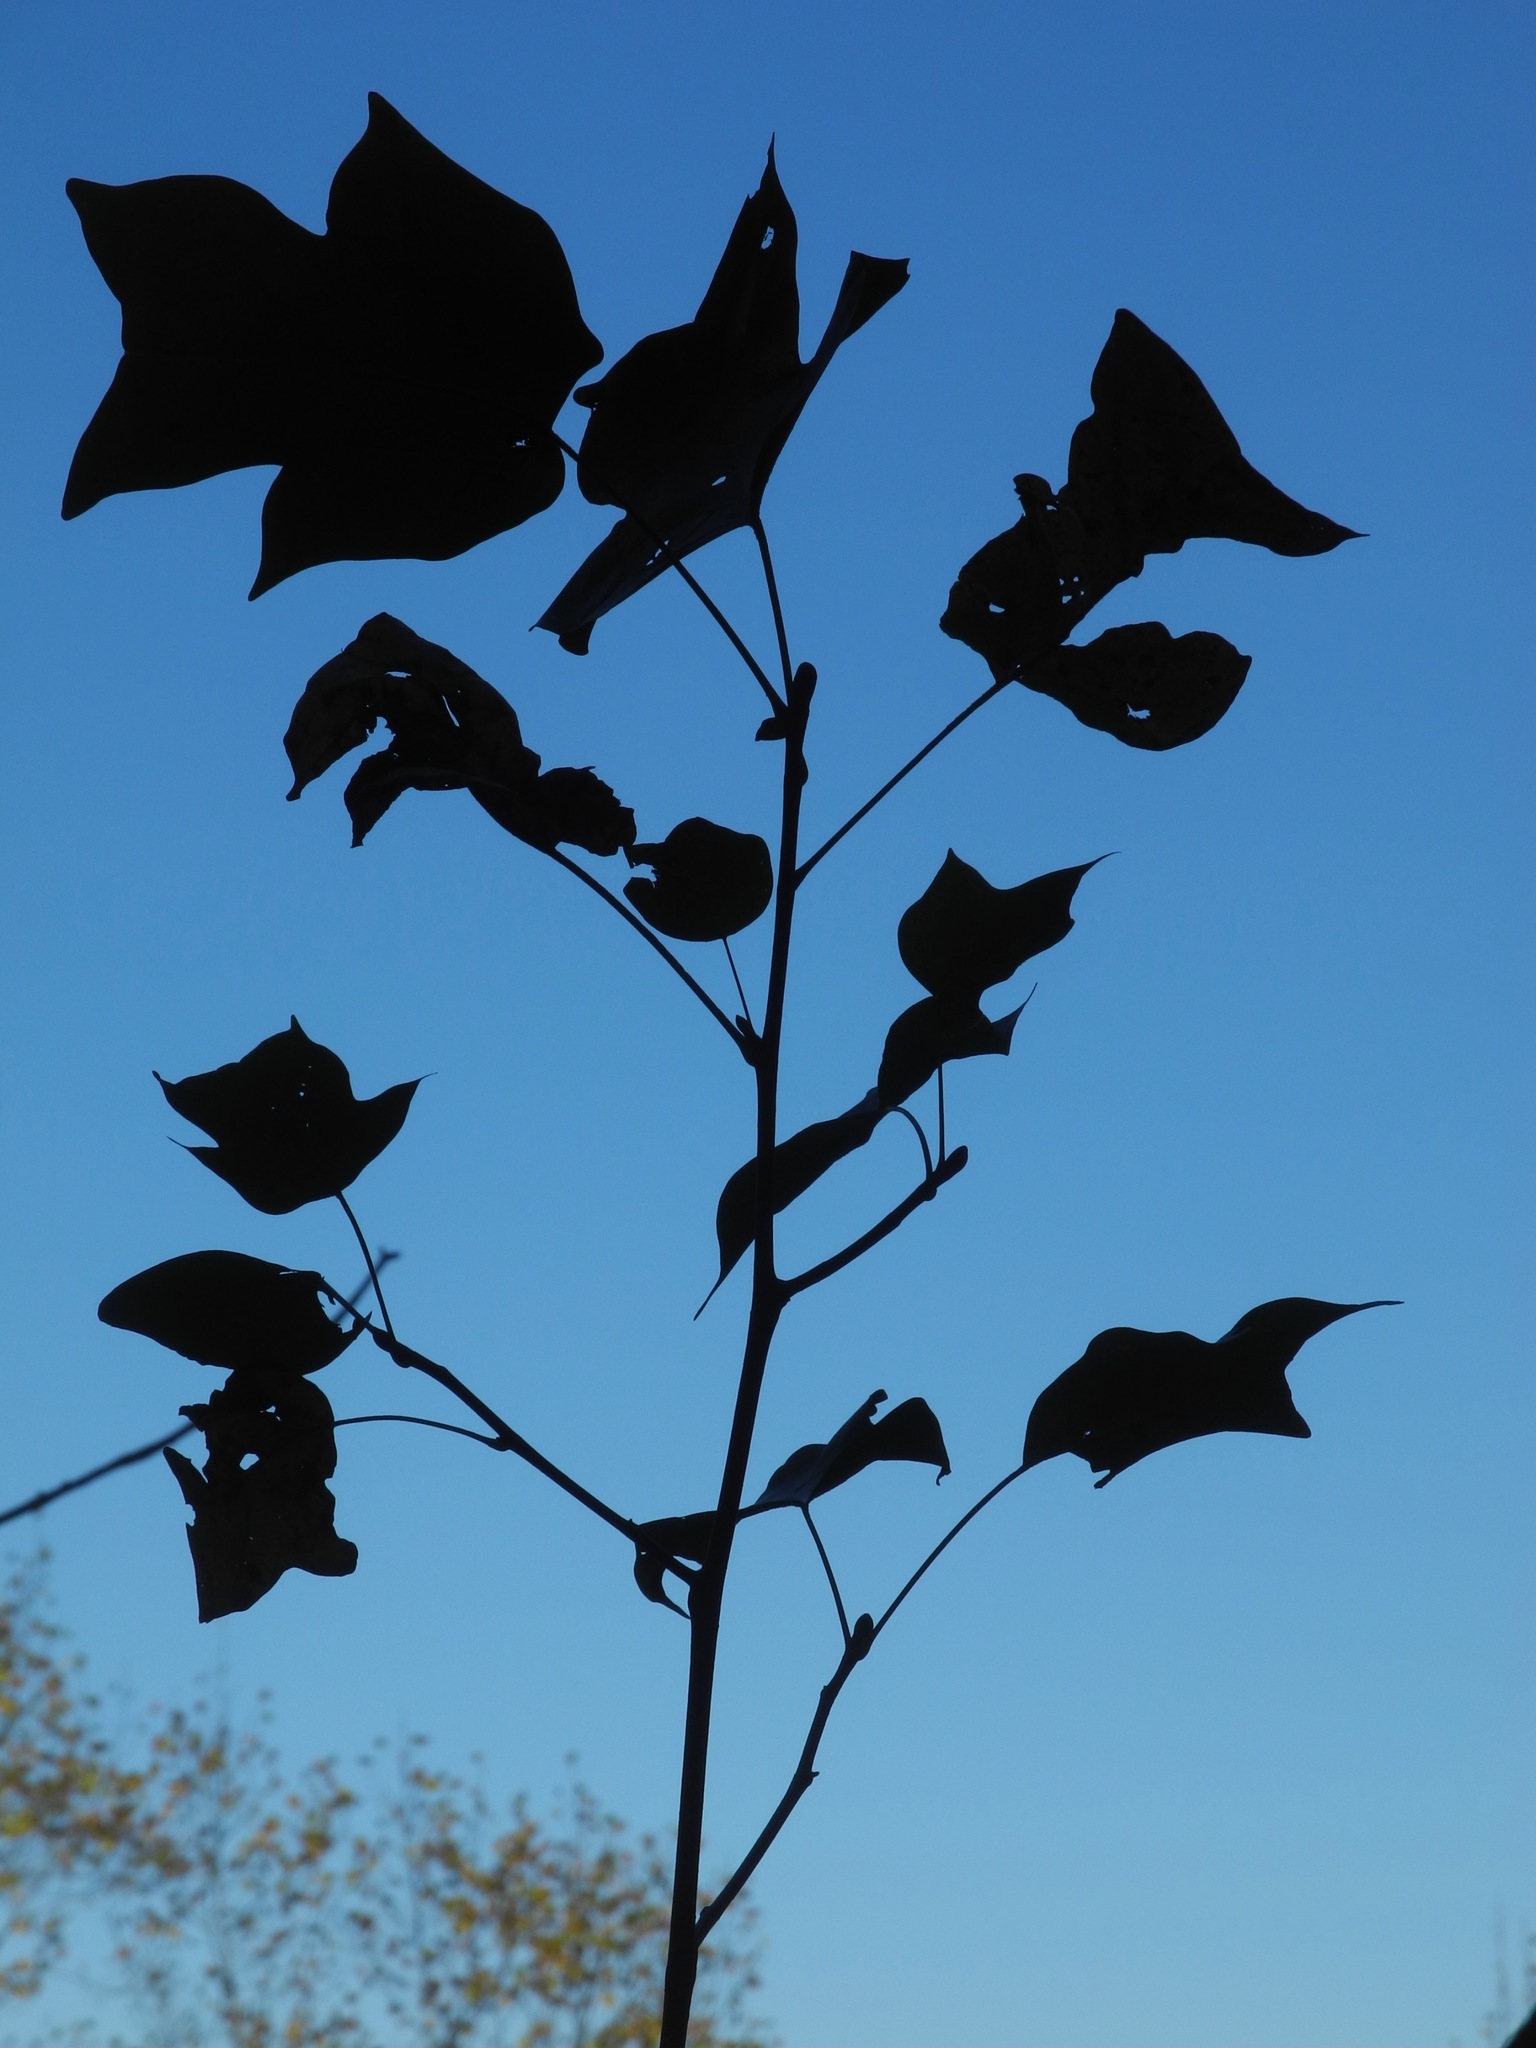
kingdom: Plantae
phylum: Tracheophyta
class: Magnoliopsida
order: Magnoliales
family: Magnoliaceae
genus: Liriodendron
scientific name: Liriodendron tulipifera
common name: Tulip tree
